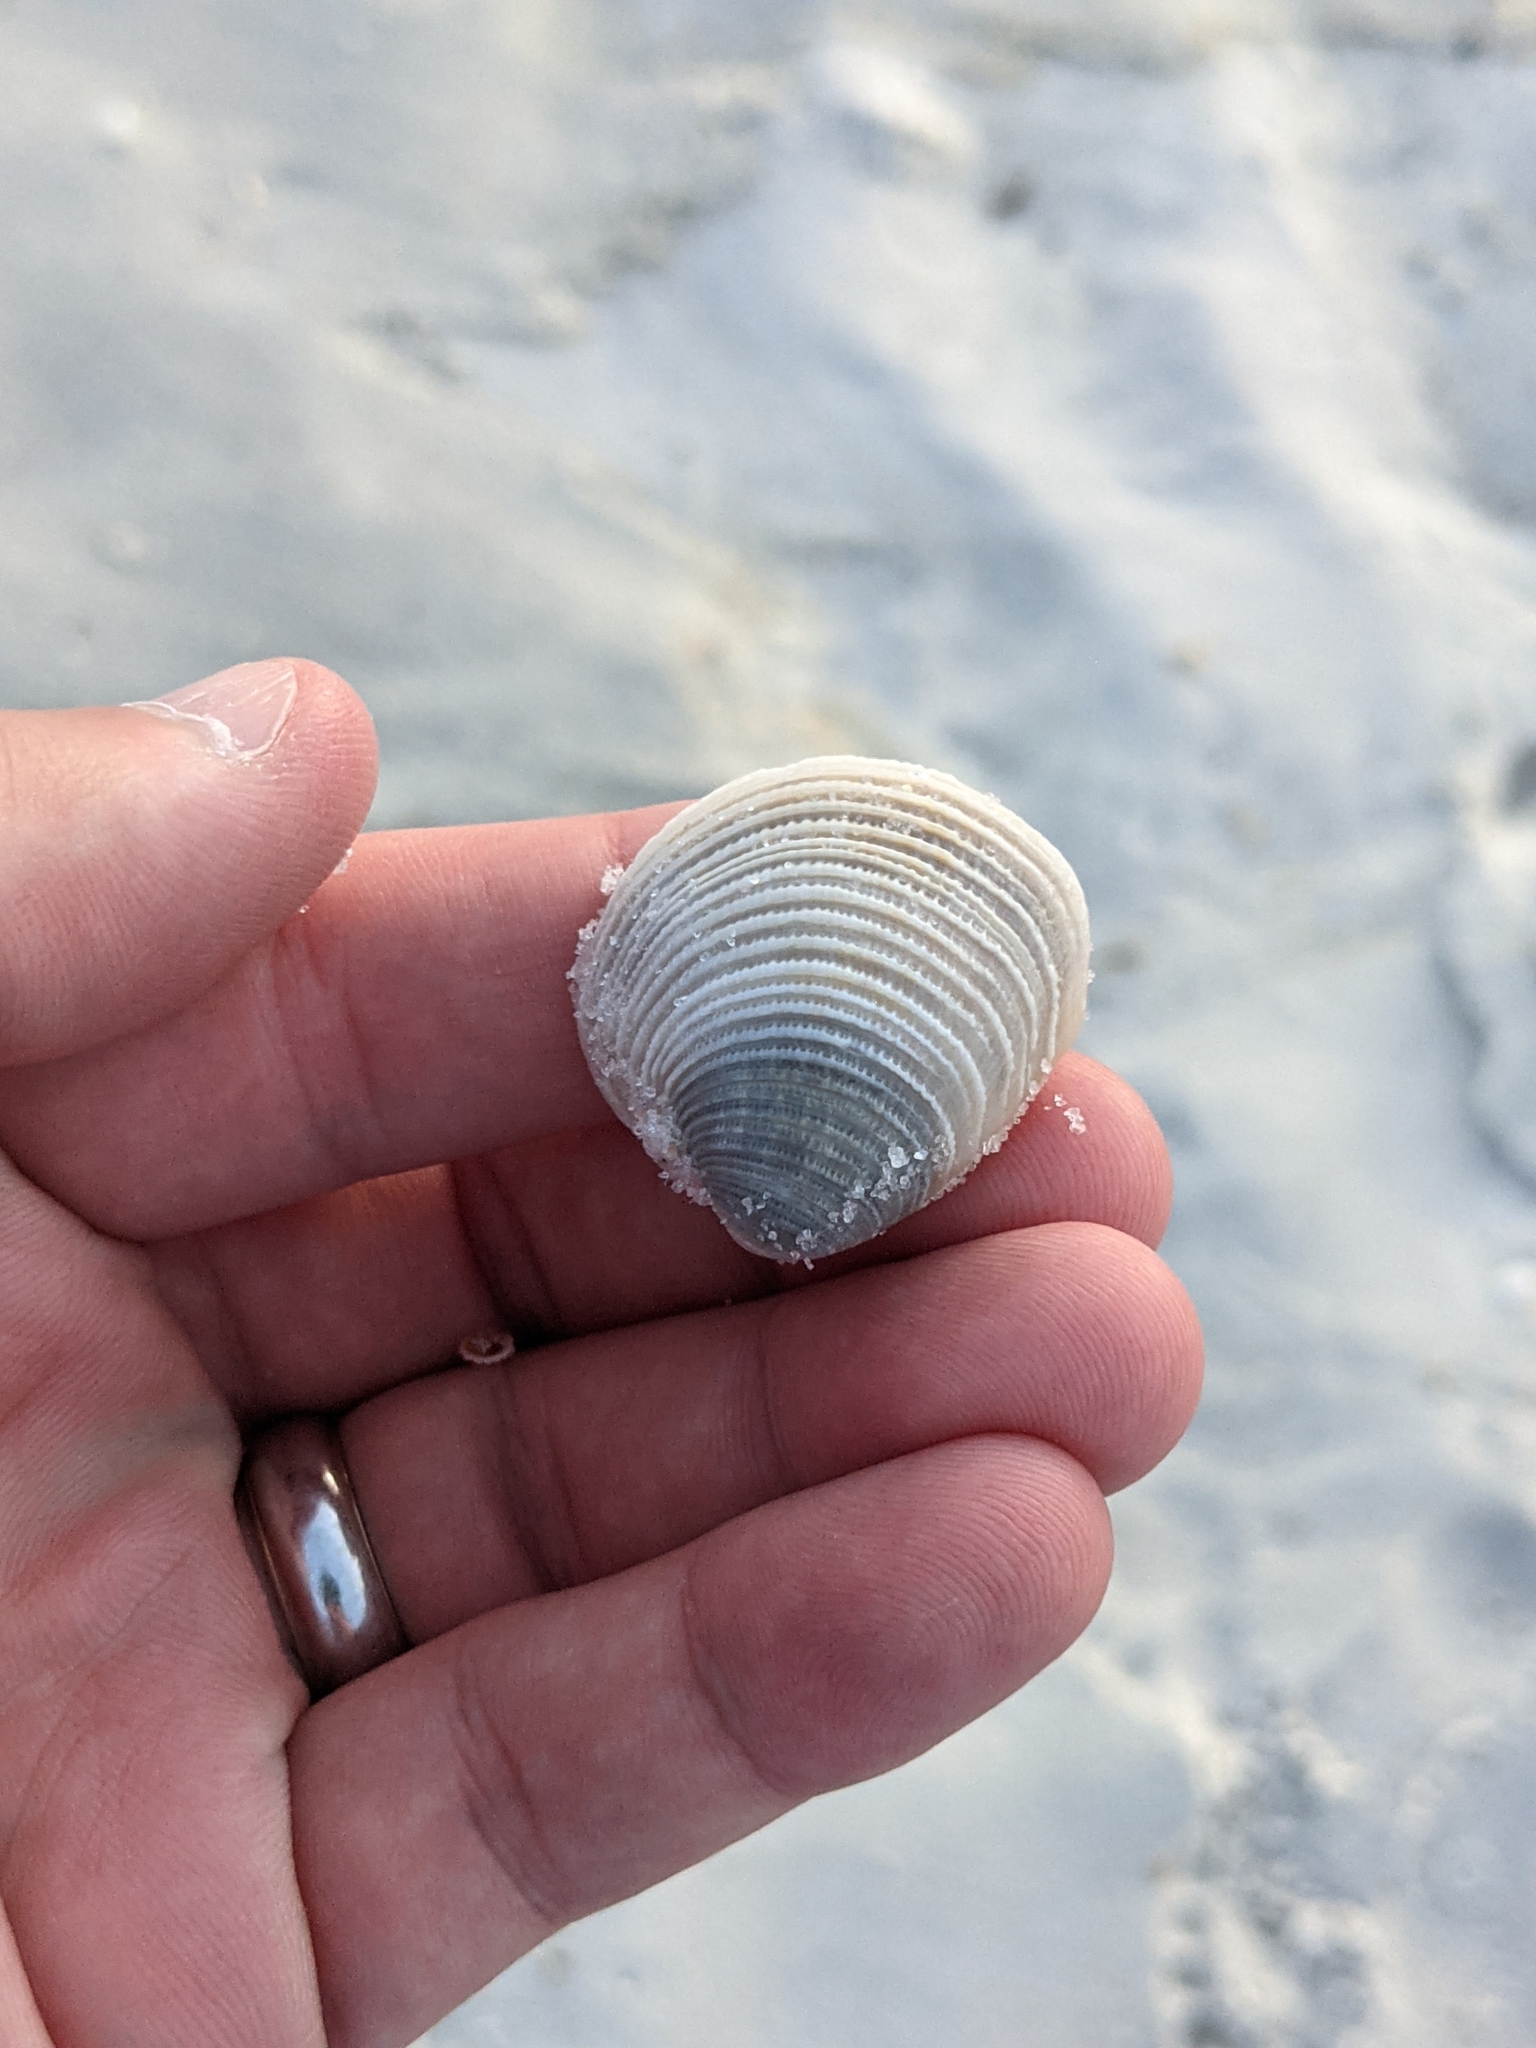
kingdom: Animalia
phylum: Mollusca
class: Bivalvia
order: Venerida
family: Veneridae
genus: Chionopsis
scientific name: Chionopsis intapurpurea
